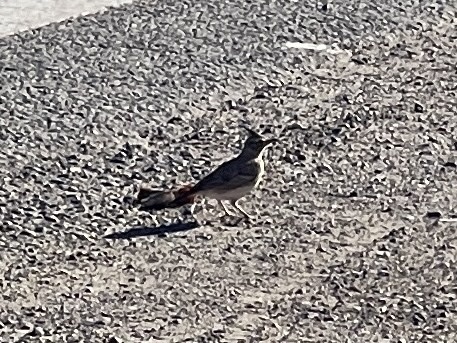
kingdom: Animalia
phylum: Chordata
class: Aves
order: Passeriformes
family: Alaudidae
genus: Galerida
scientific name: Galerida cristata
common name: Crested lark
